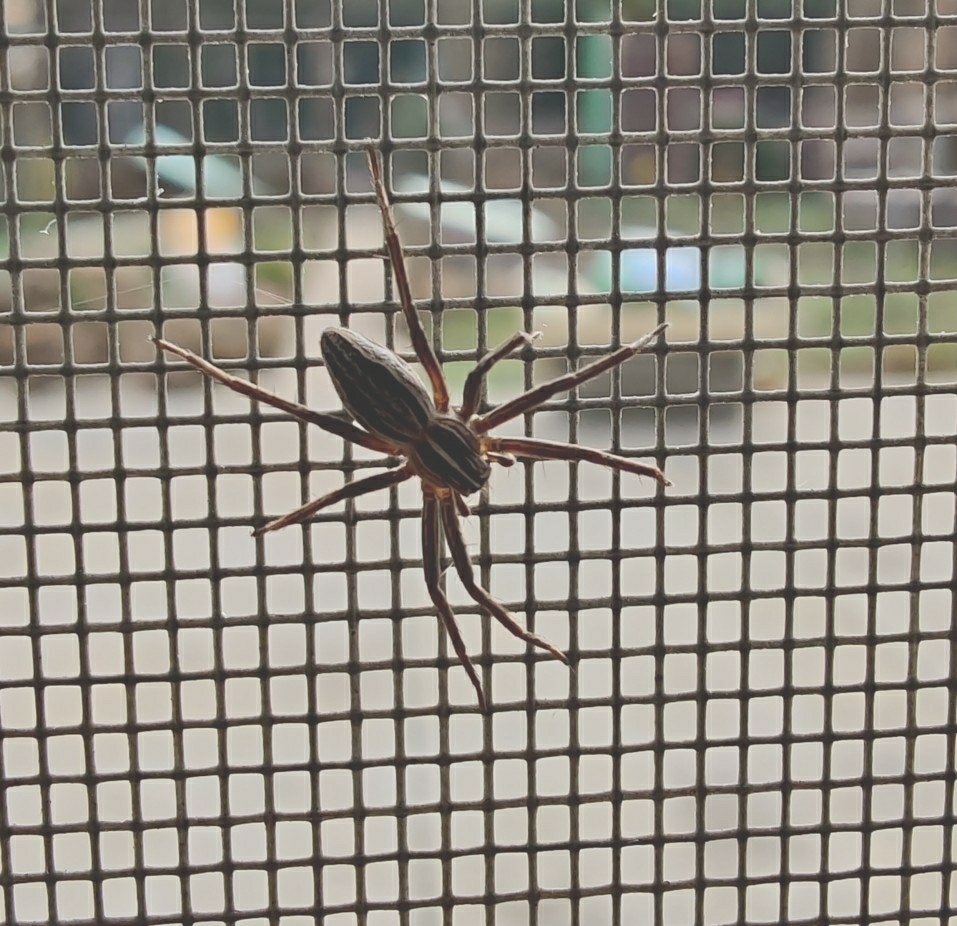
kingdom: Animalia
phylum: Arthropoda
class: Arachnida
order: Araneae
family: Pisauridae
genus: Pisaura
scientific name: Pisaura mirabilis
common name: Tent spider
